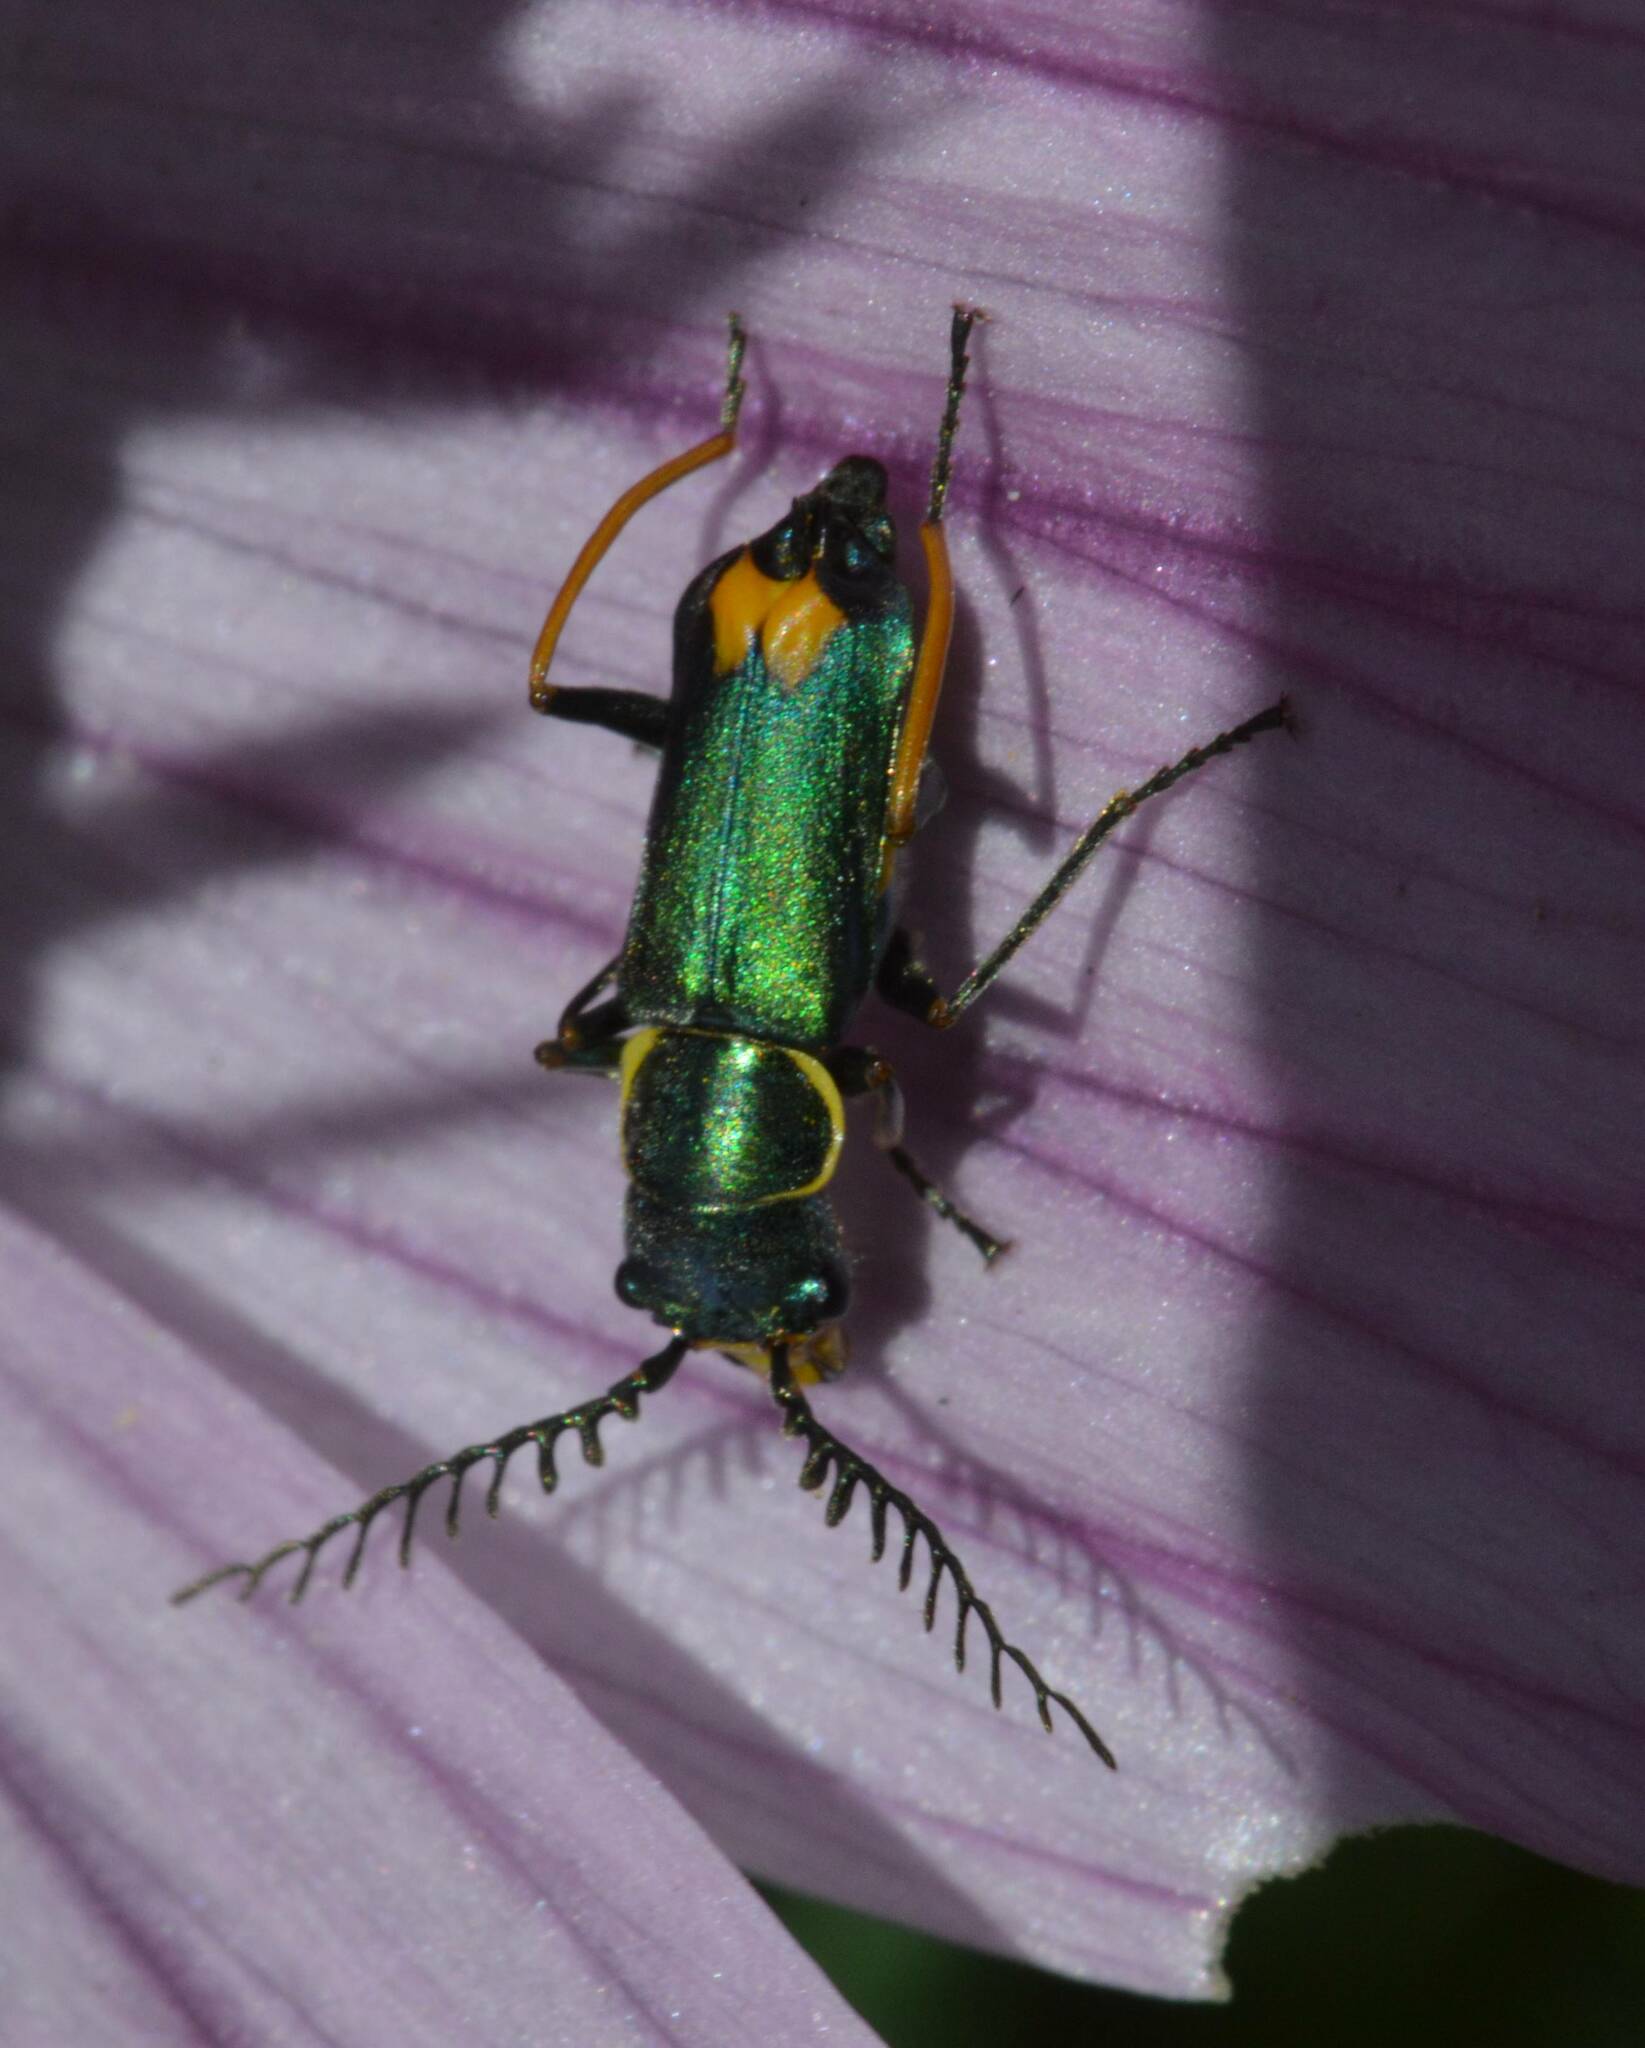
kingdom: Animalia
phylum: Arthropoda
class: Insecta
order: Coleoptera
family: Malachiidae
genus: Clanoptilus
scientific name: Clanoptilus
